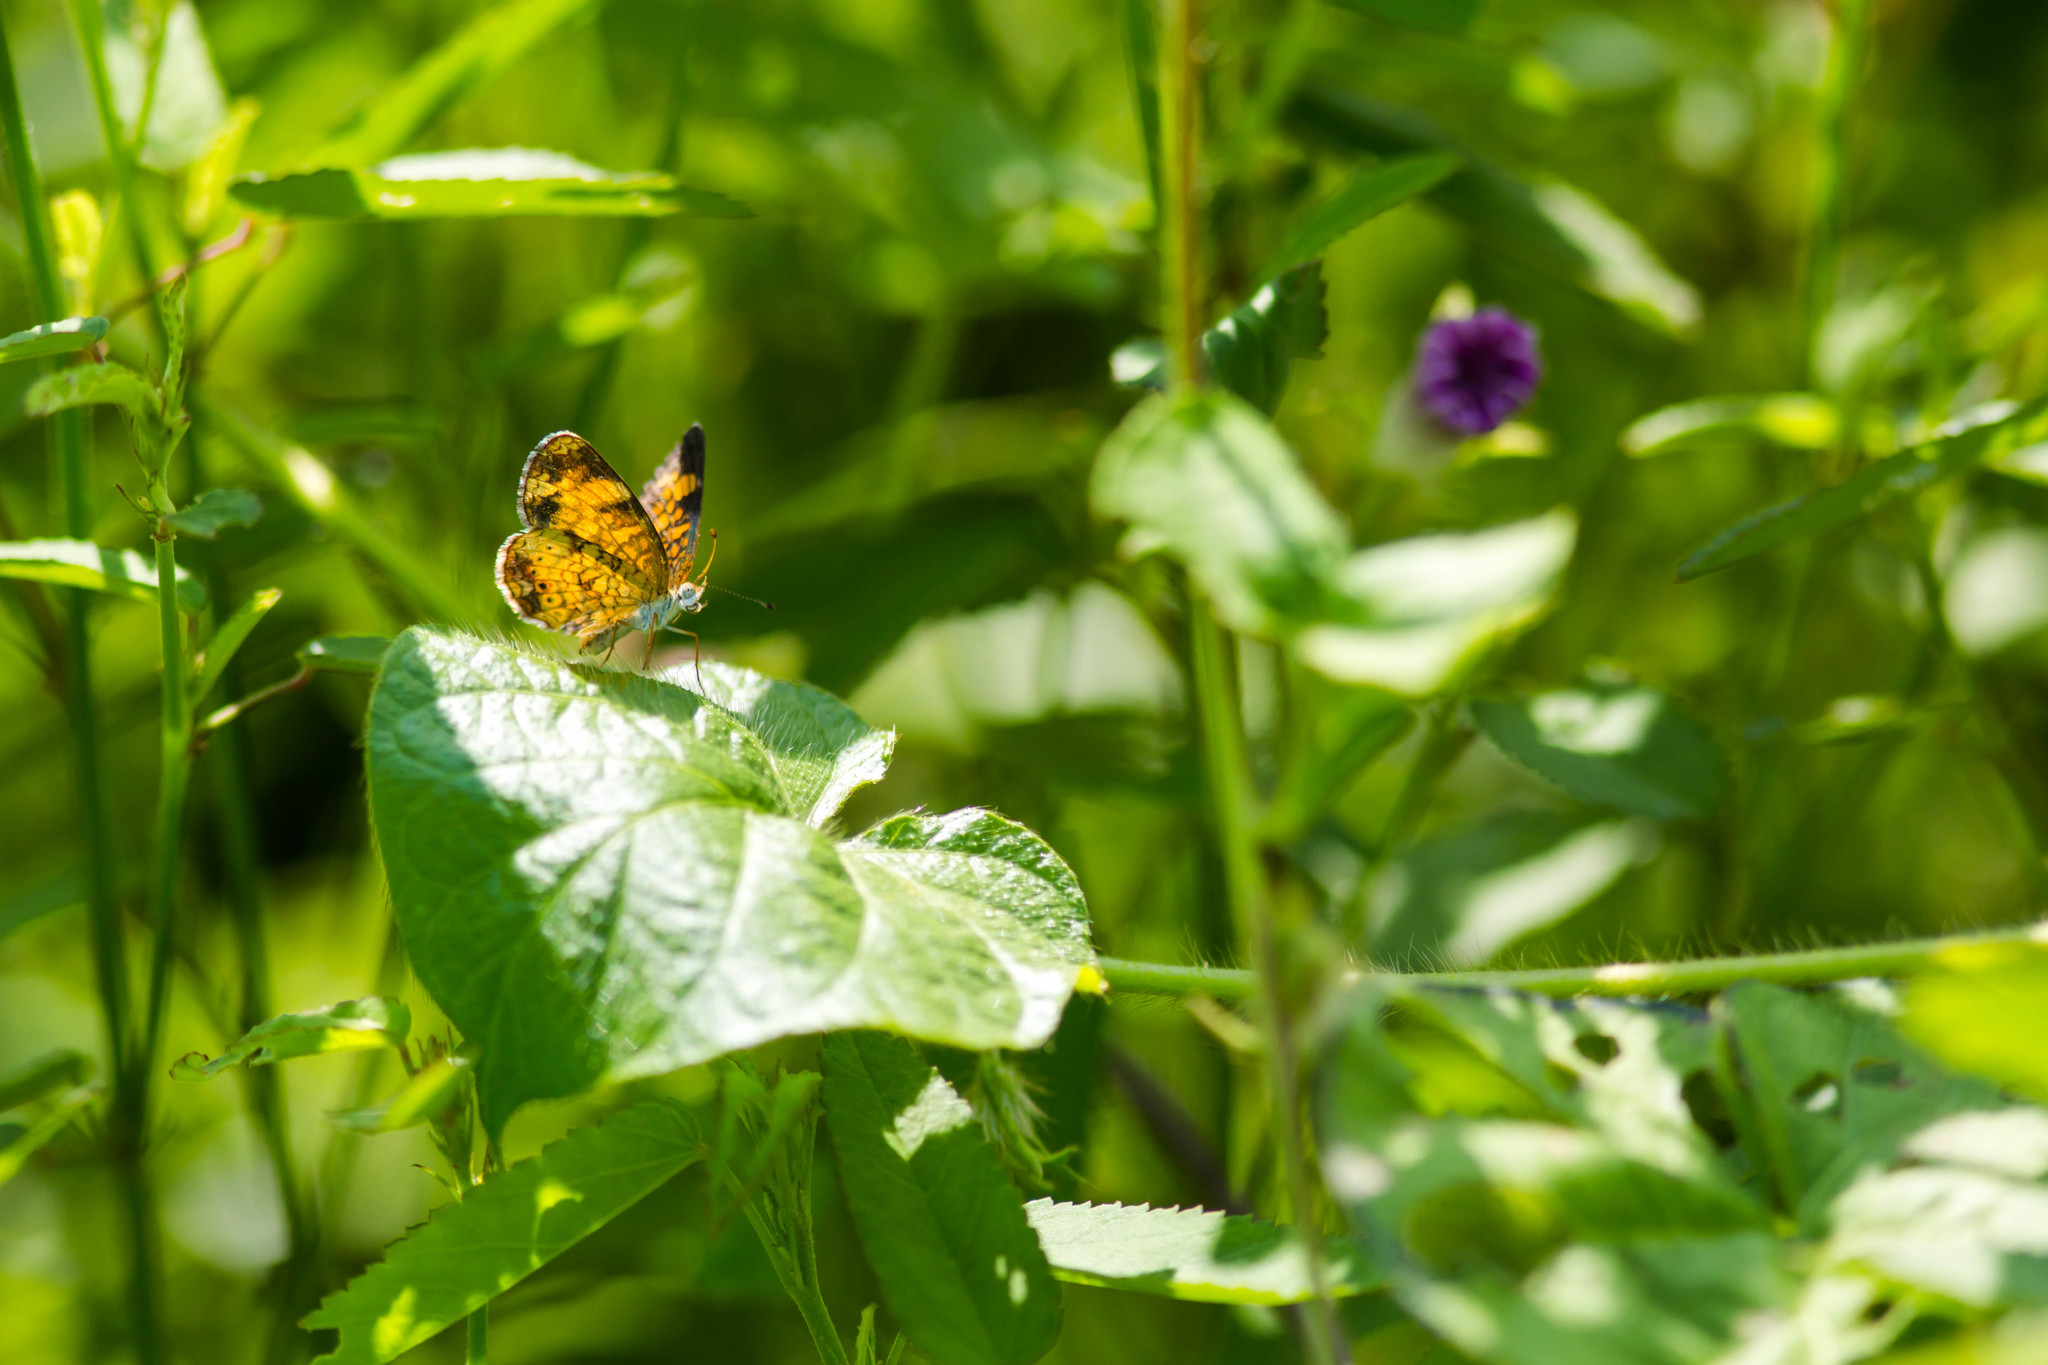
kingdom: Animalia
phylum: Arthropoda
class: Insecta
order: Lepidoptera
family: Nymphalidae
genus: Phyciodes
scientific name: Phyciodes tharos
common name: Pearl crescent
